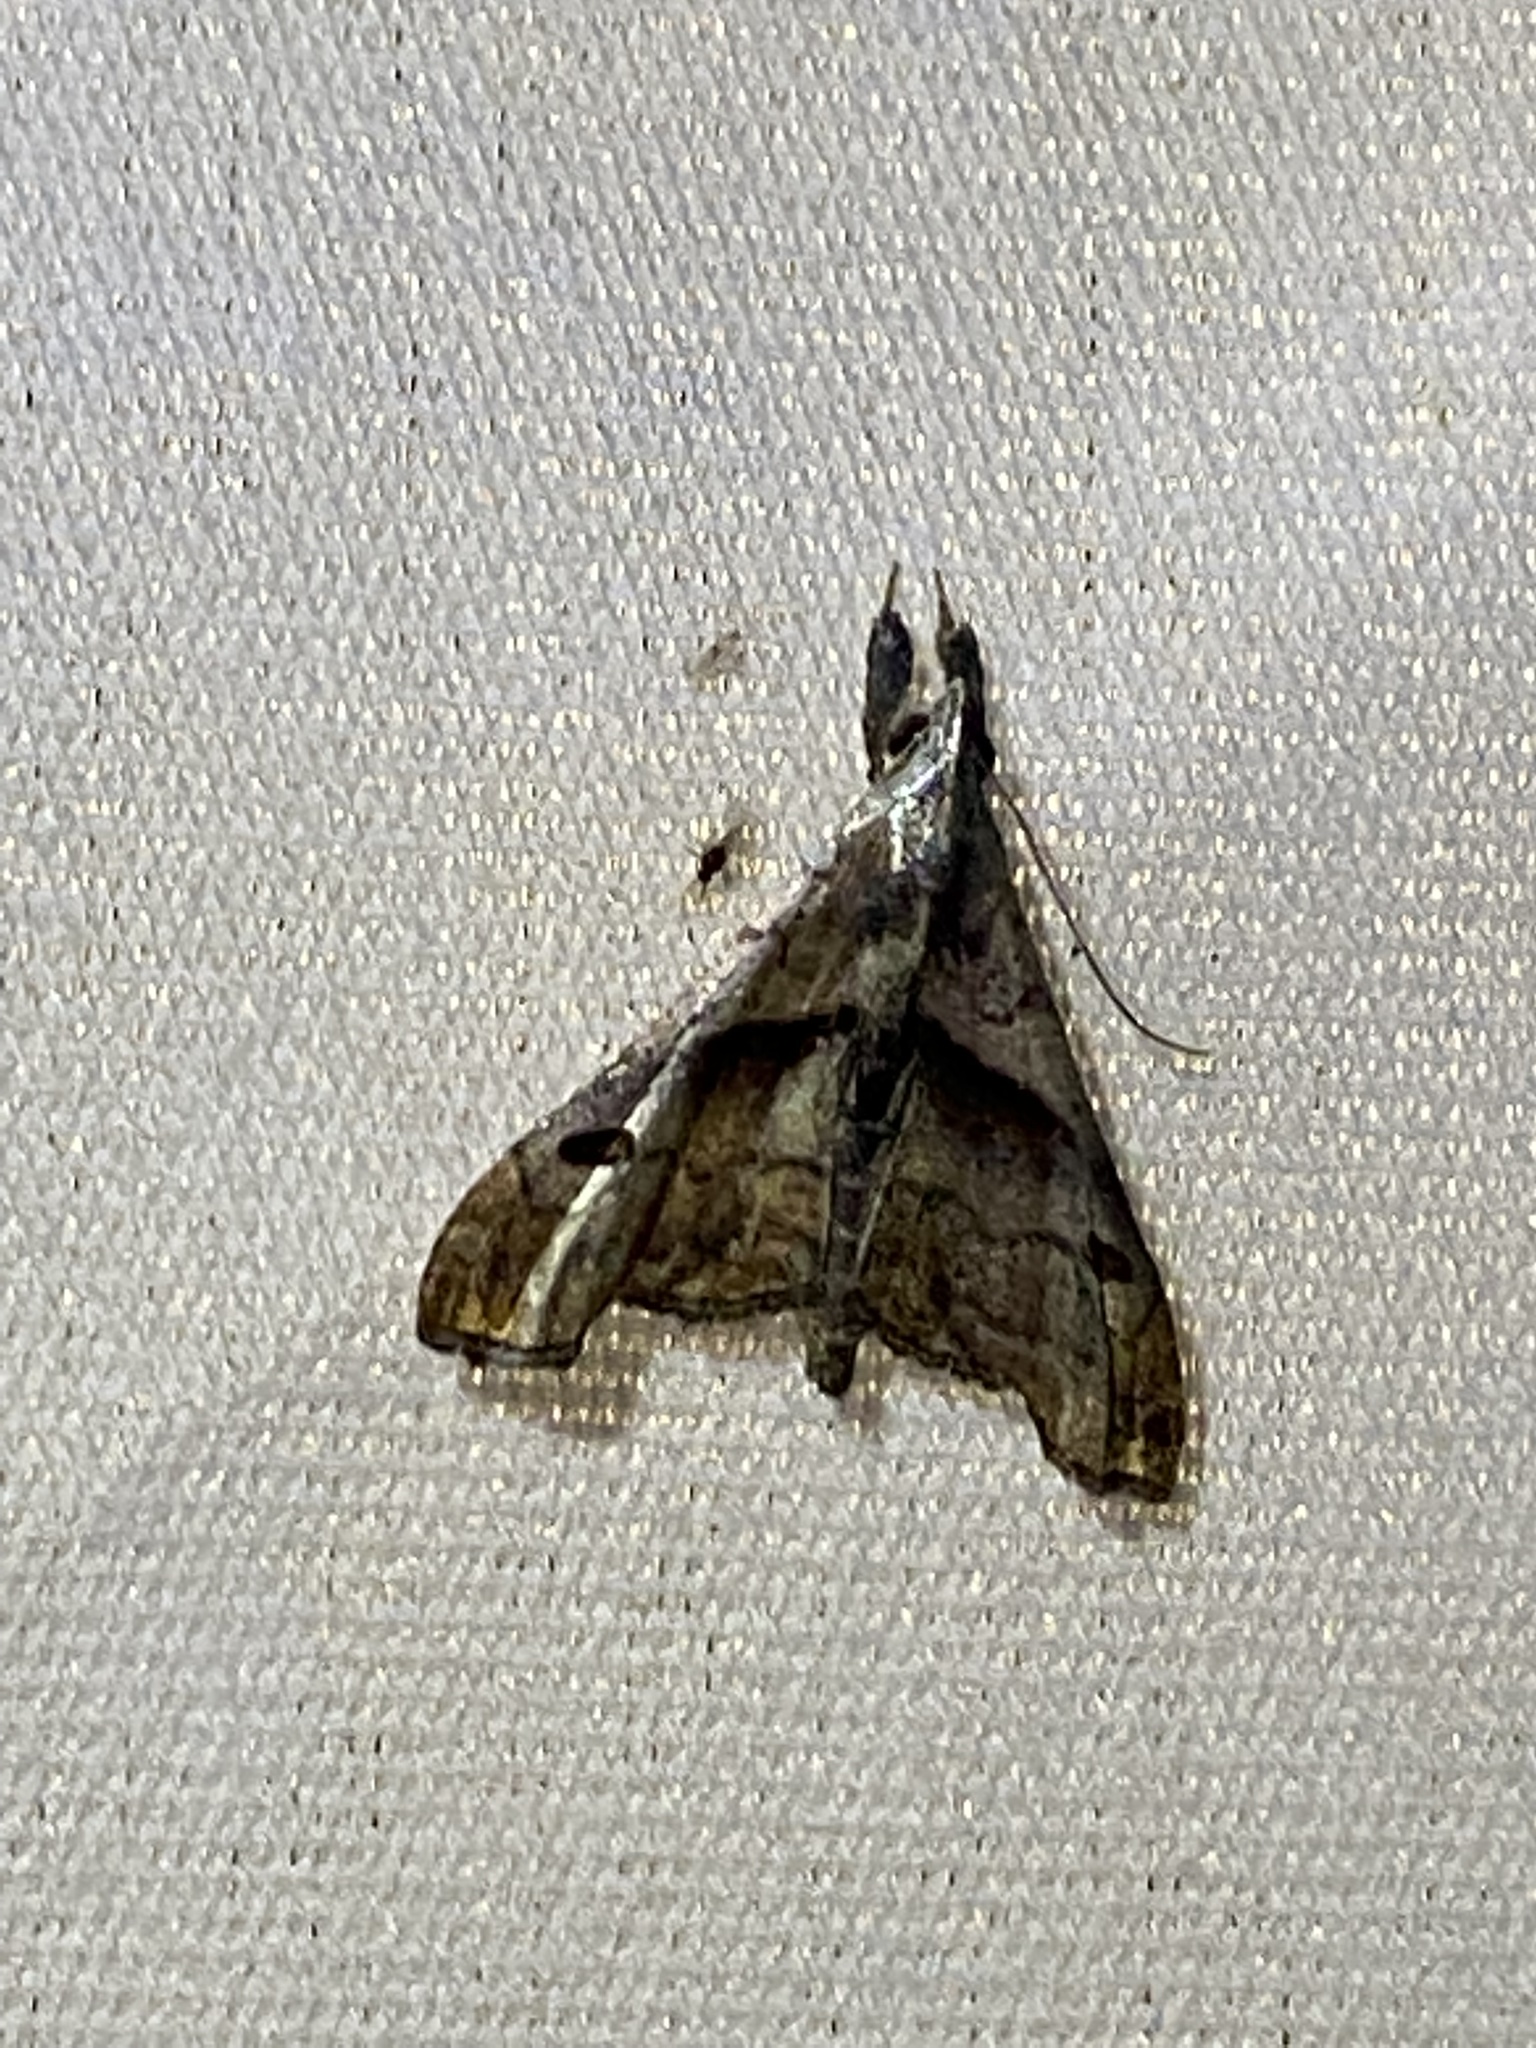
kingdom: Animalia
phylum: Arthropoda
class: Insecta
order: Lepidoptera
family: Erebidae
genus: Palthis
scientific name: Palthis angulalis
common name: Dark-spotted palthis moth
